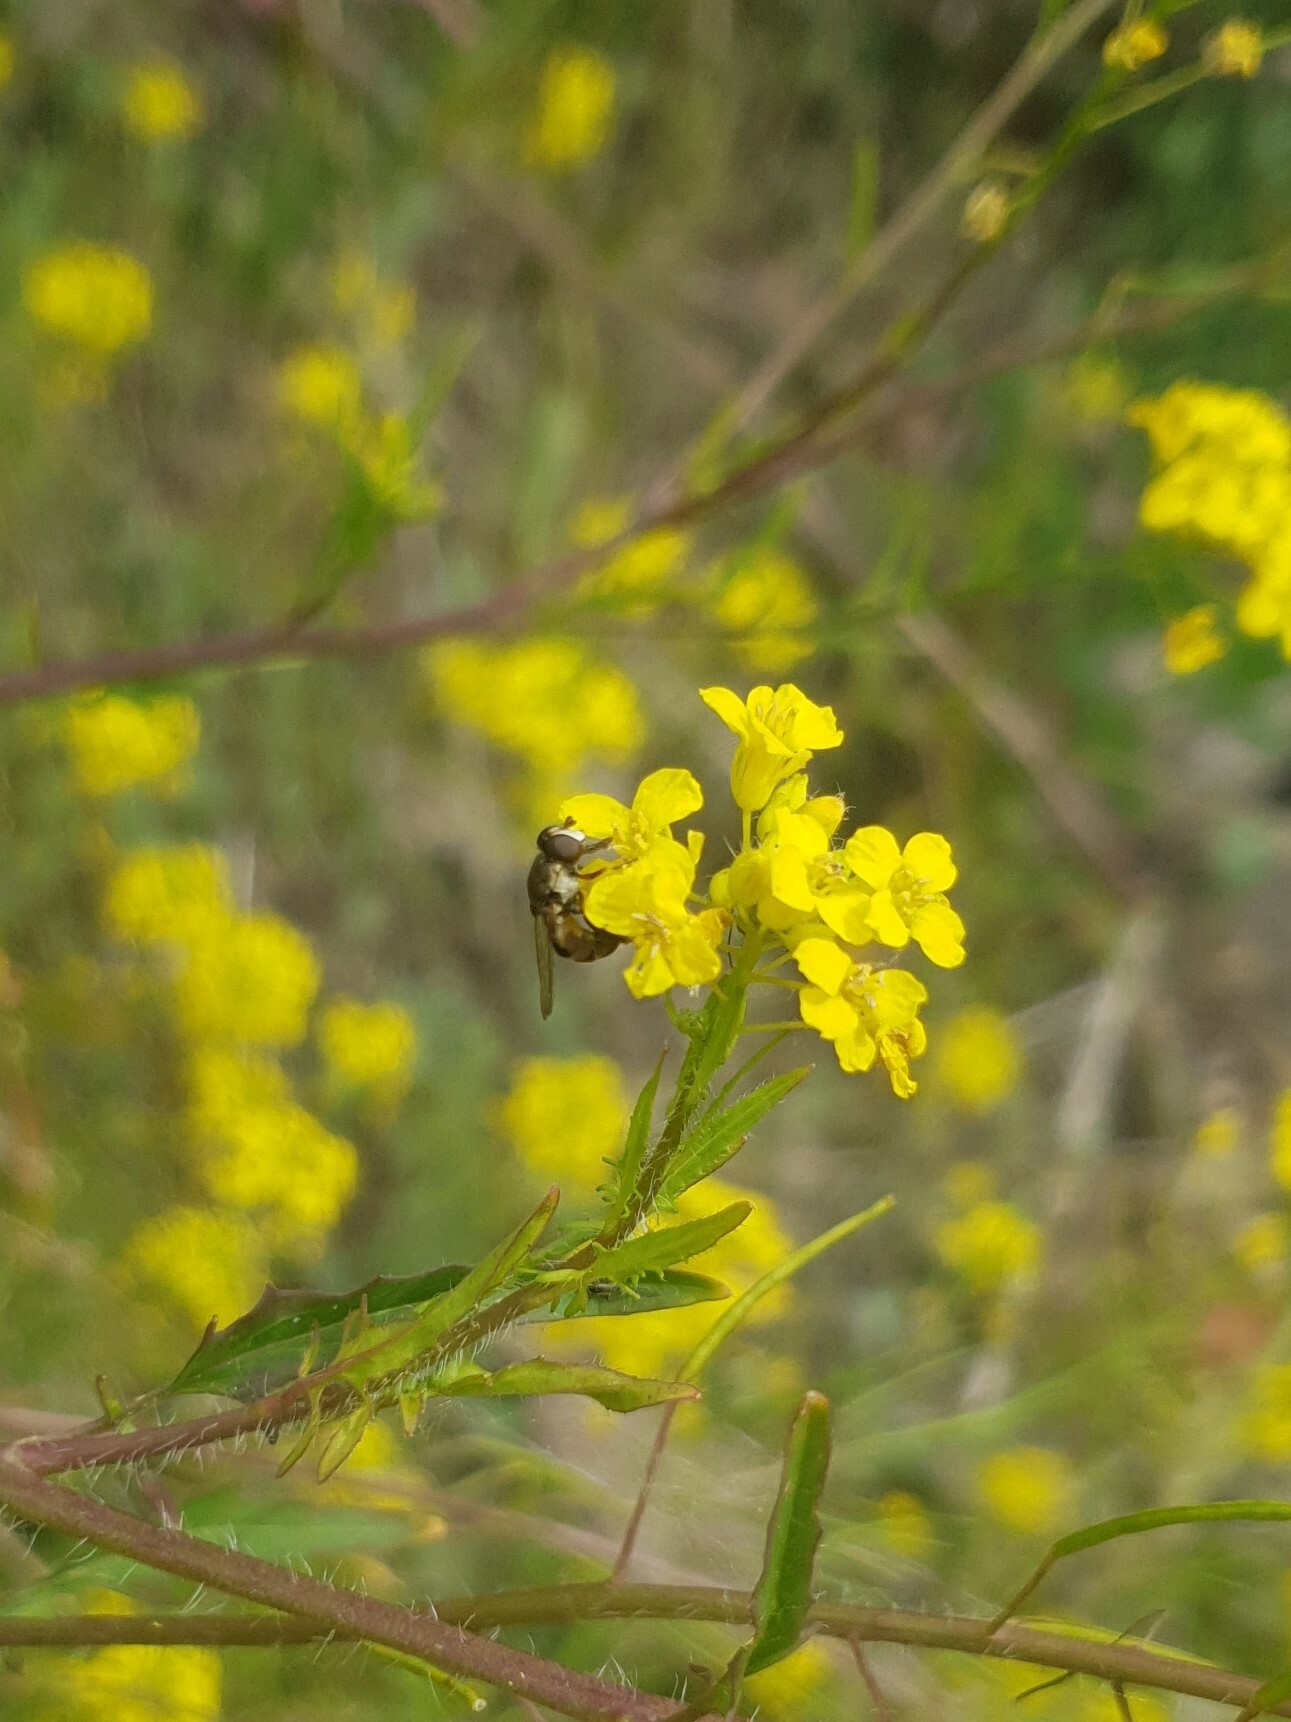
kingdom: Animalia
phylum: Arthropoda
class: Insecta
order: Diptera
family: Syrphidae
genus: Syritta
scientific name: Syritta pipiens
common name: Hover fly
